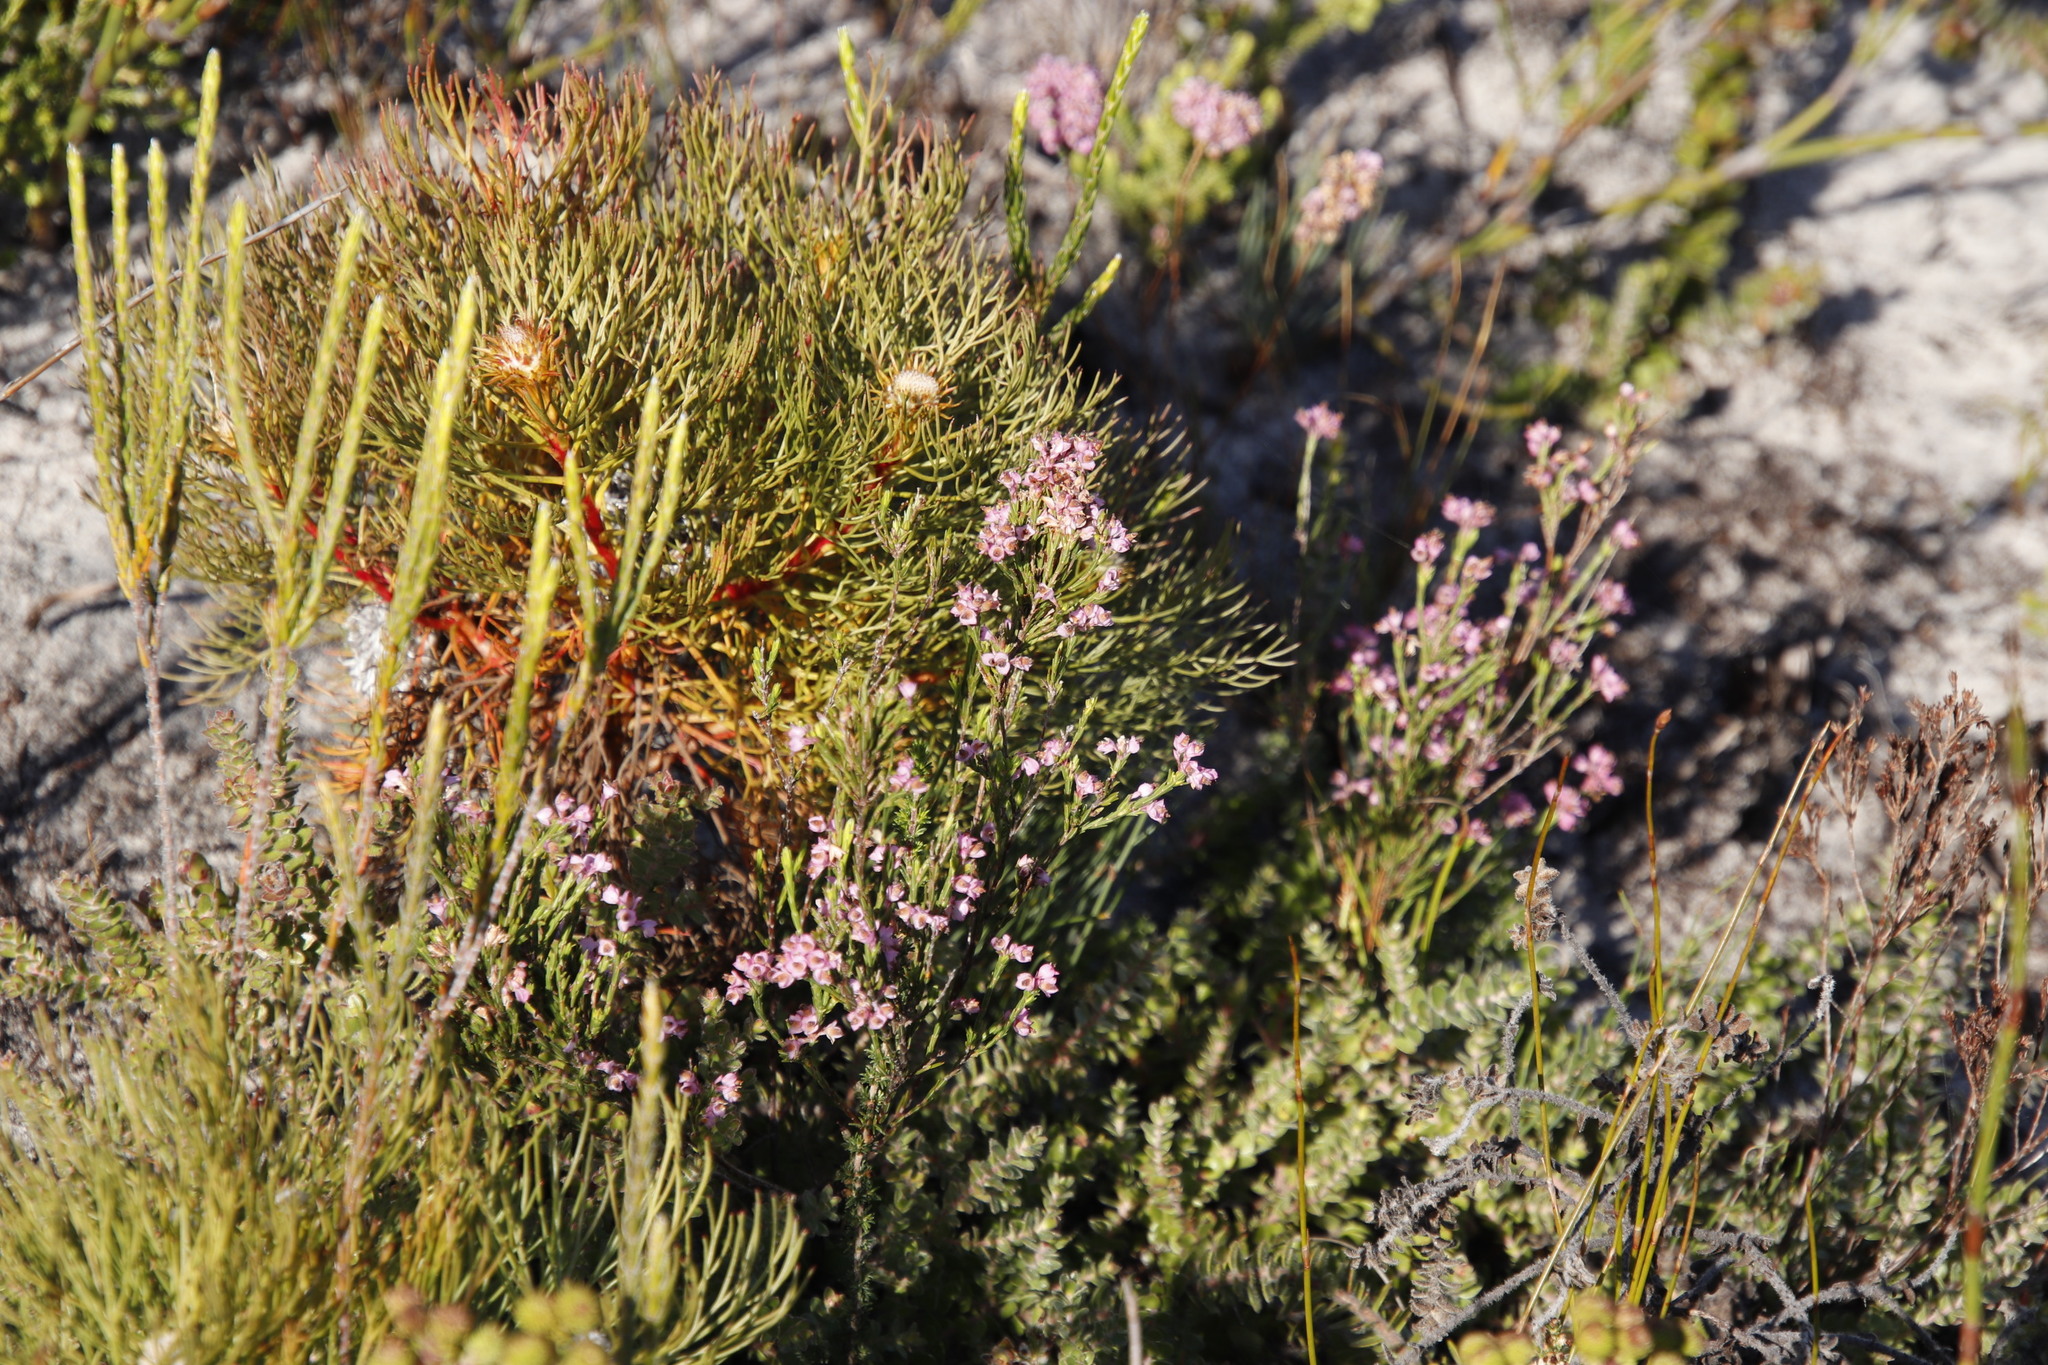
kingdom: Plantae
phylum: Tracheophyta
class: Magnoliopsida
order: Proteales
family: Proteaceae
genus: Serruria
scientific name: Serruria villosa
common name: Golden spiderhead
